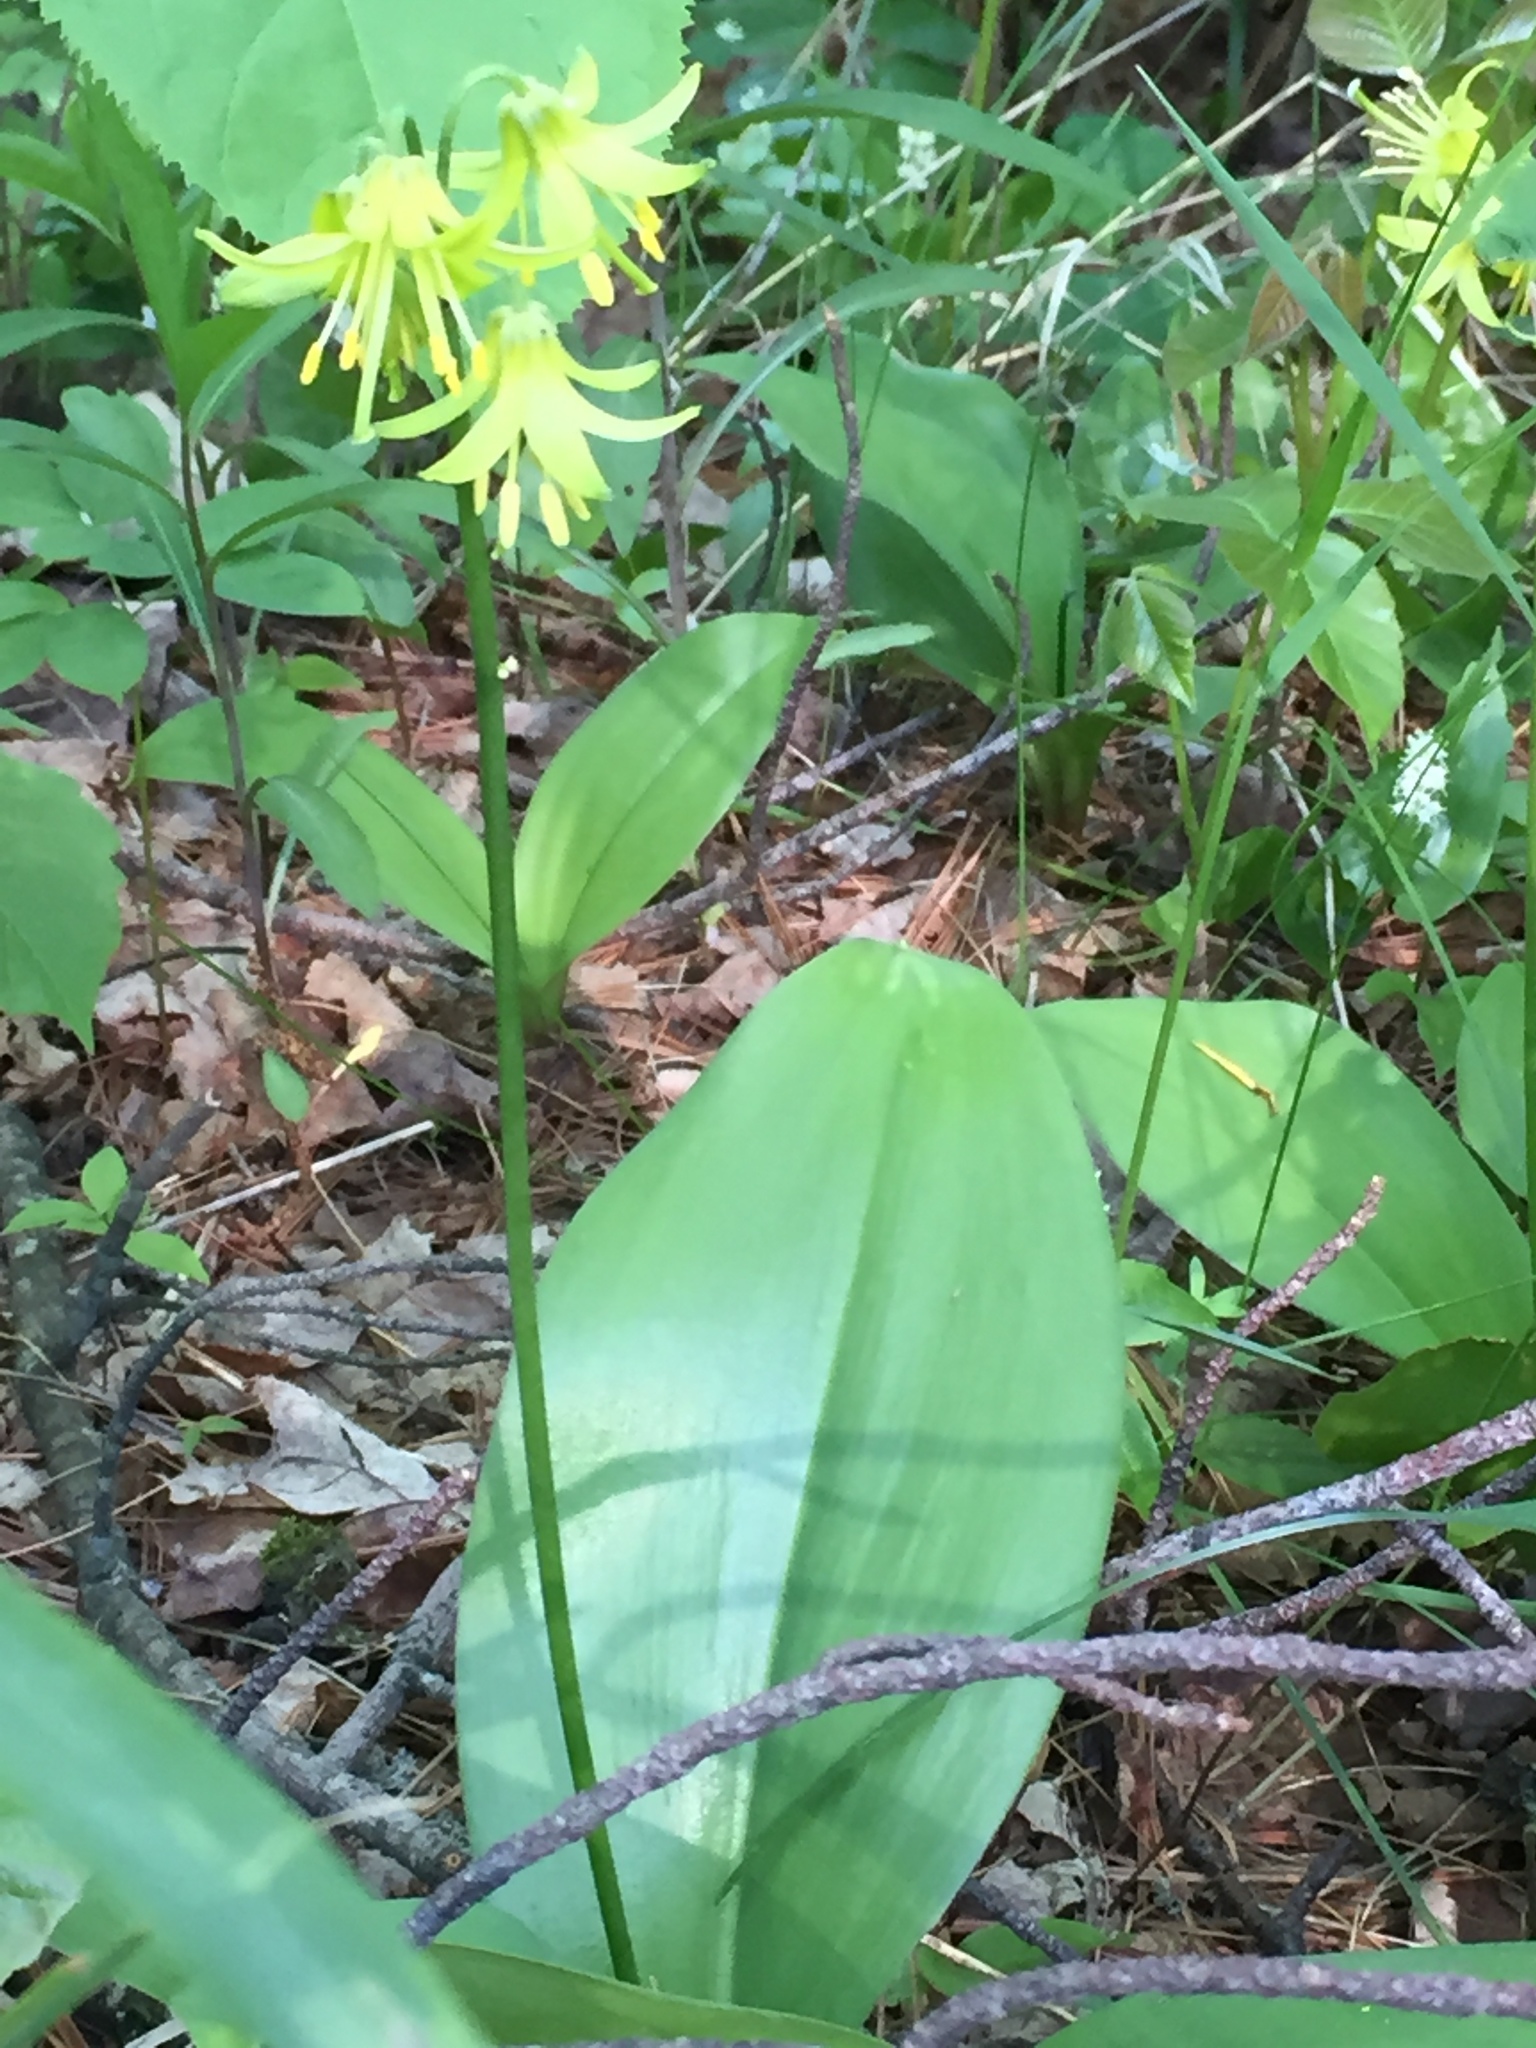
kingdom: Plantae
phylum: Tracheophyta
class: Liliopsida
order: Liliales
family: Liliaceae
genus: Clintonia
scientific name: Clintonia borealis
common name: Yellow clintonia
